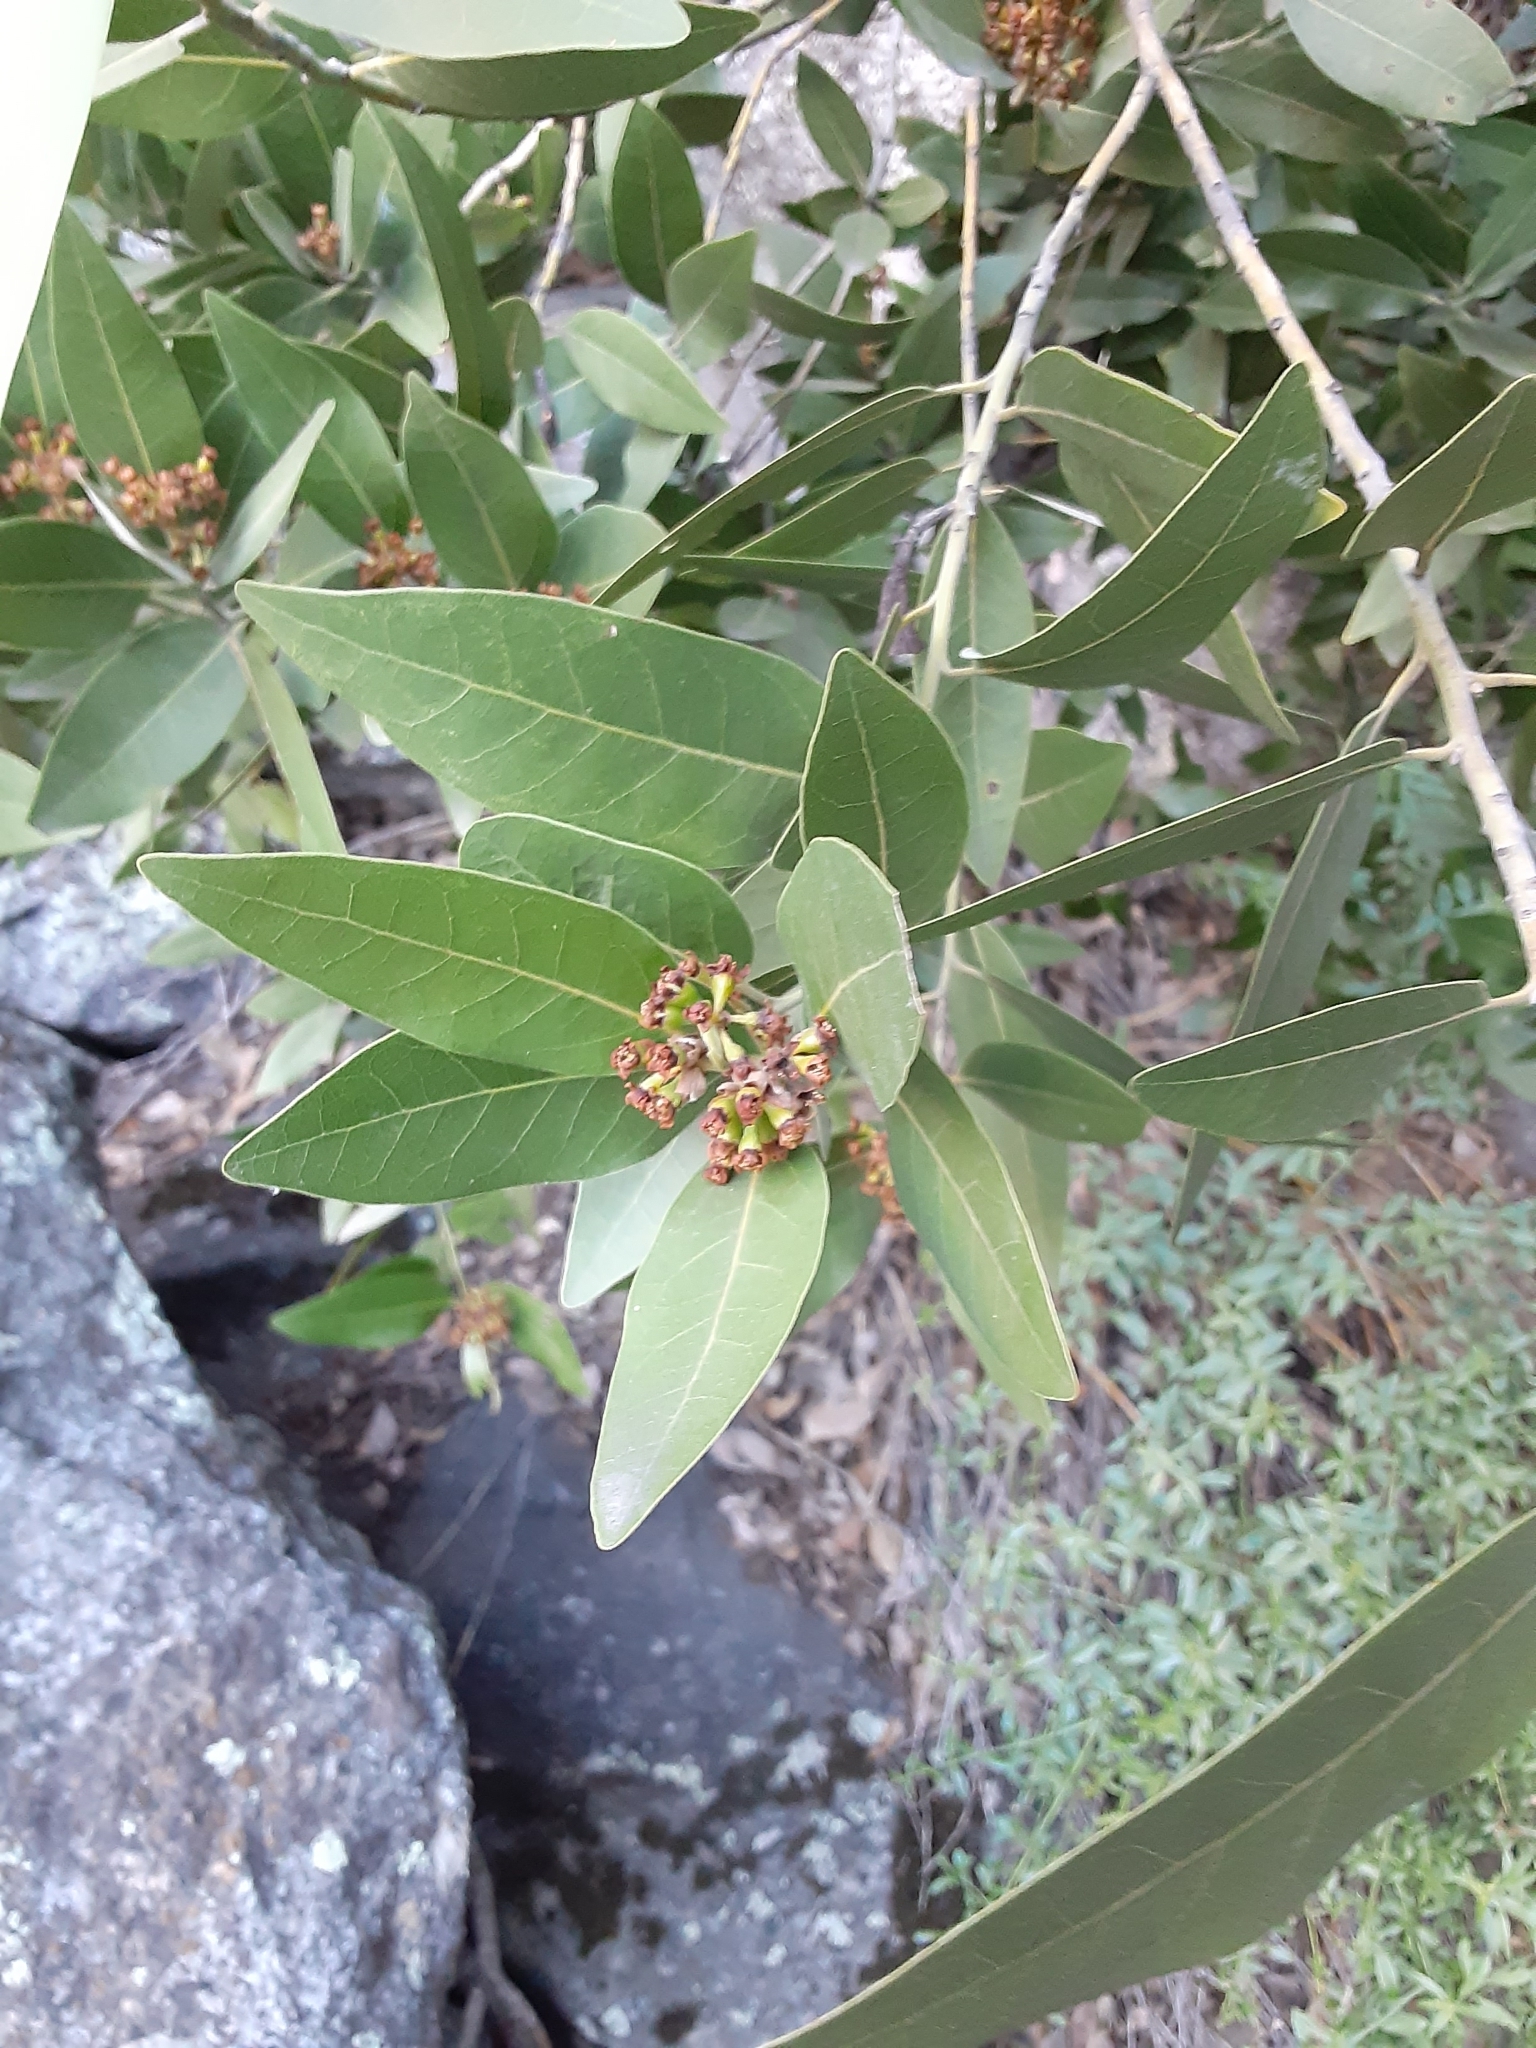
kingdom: Plantae
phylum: Tracheophyta
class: Magnoliopsida
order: Laurales
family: Lauraceae
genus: Umbellularia
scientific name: Umbellularia californica
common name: California bay
